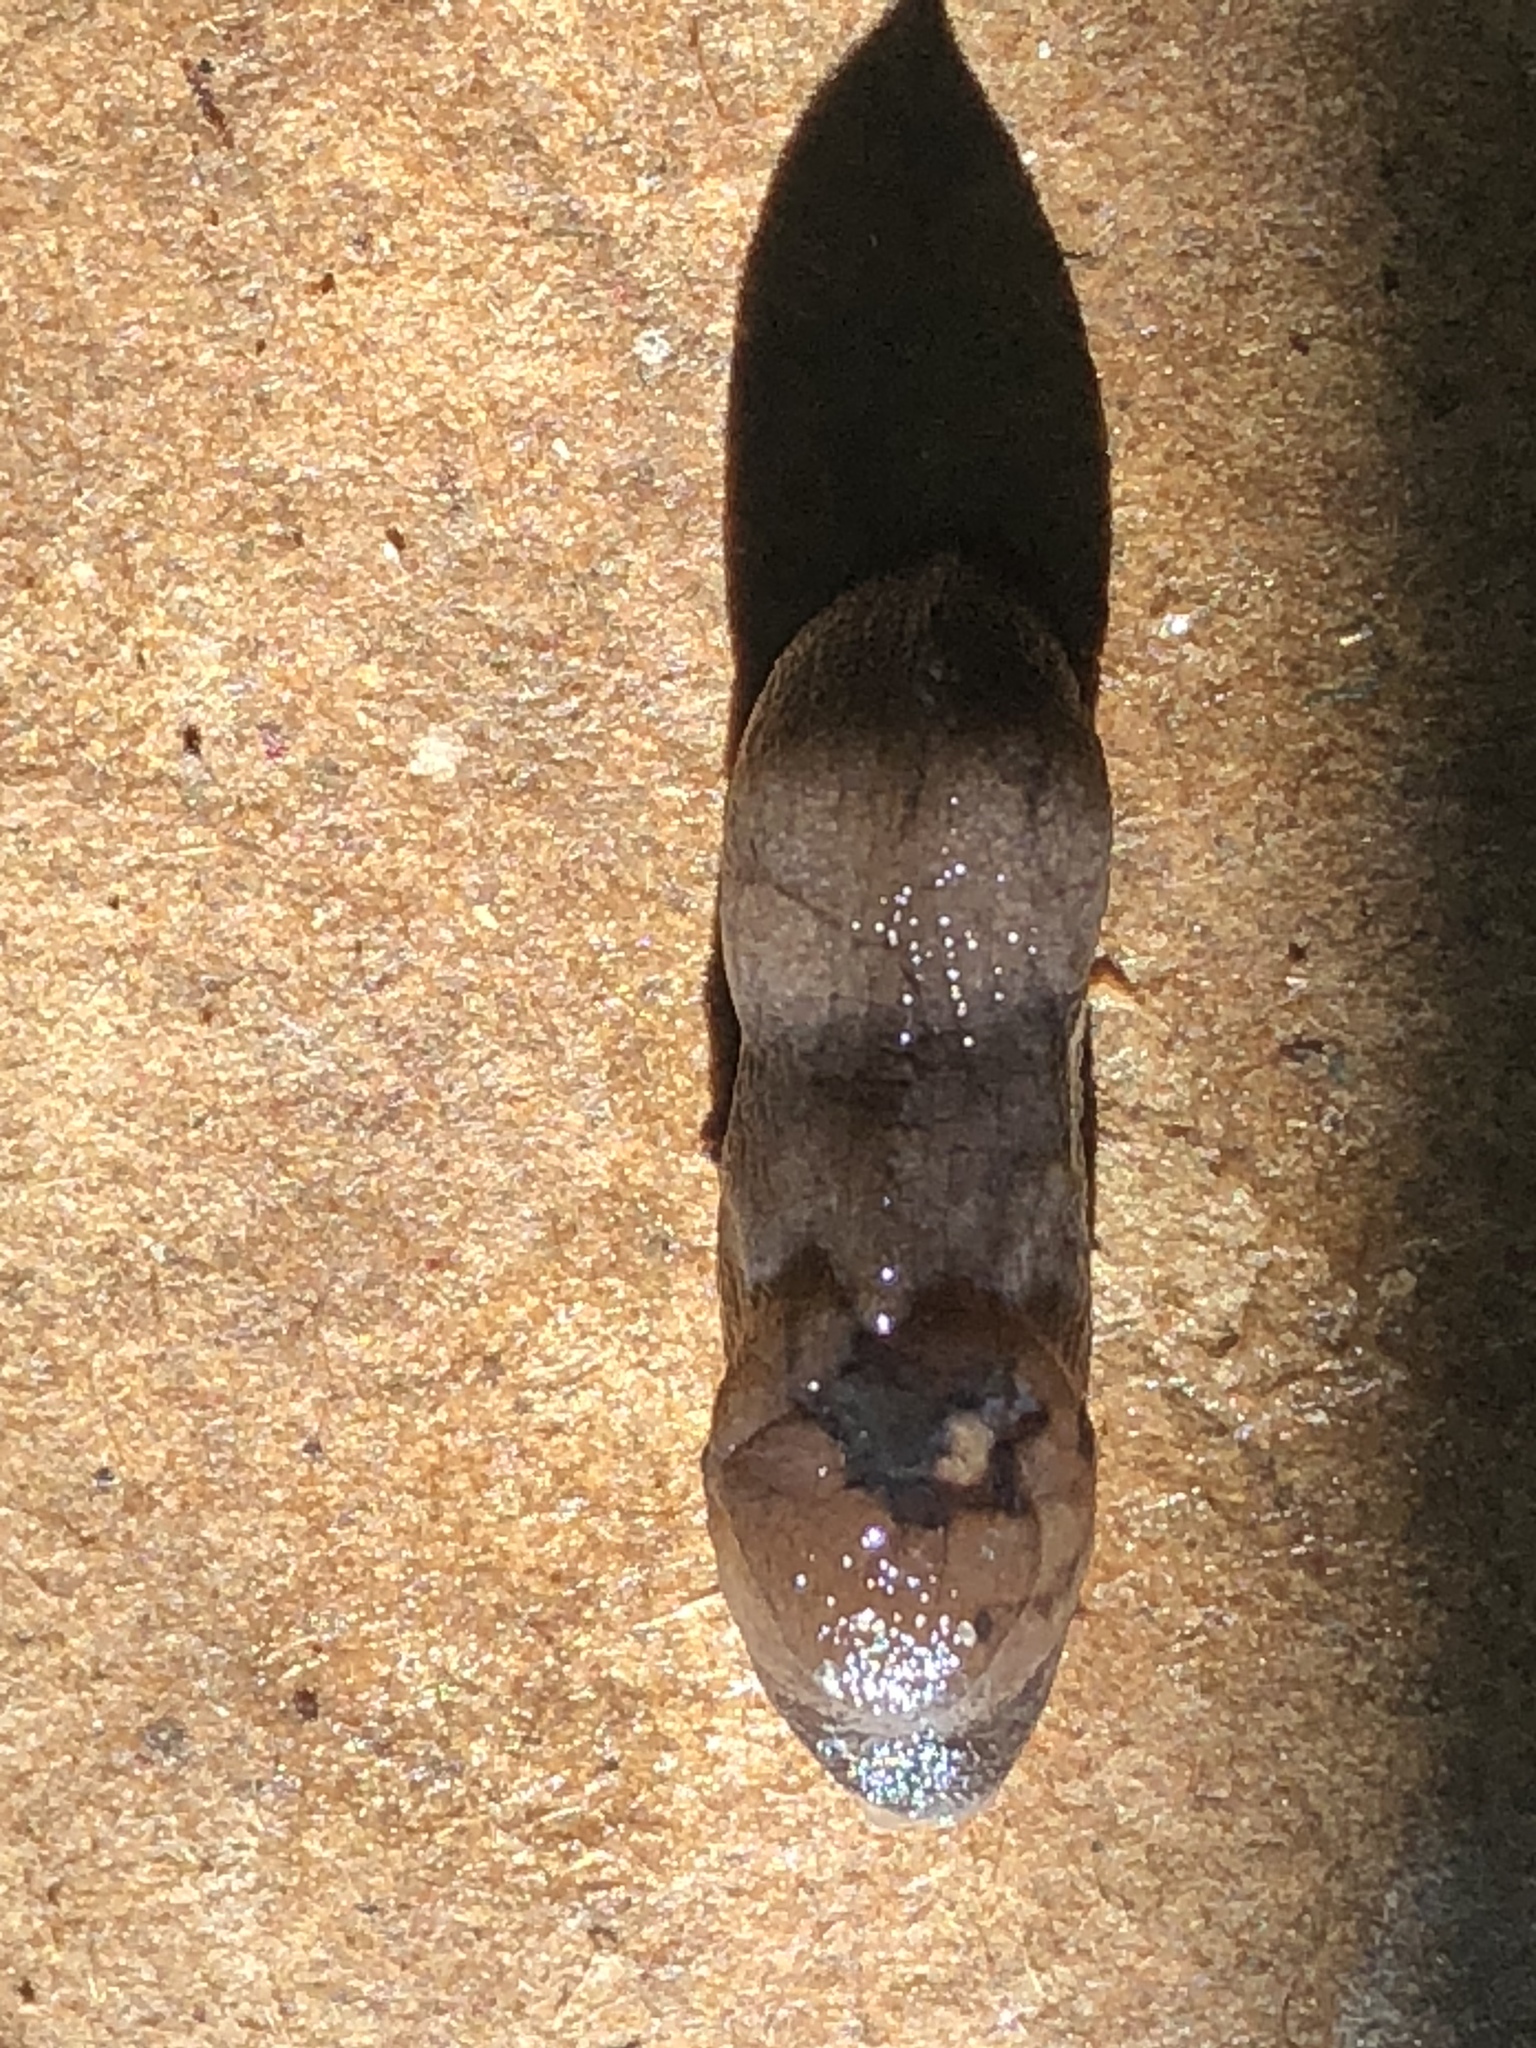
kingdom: Animalia
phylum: Mollusca
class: Gastropoda
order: Stylommatophora
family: Milacidae
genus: Milax
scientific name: Milax gagates
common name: Greenhouse slug
